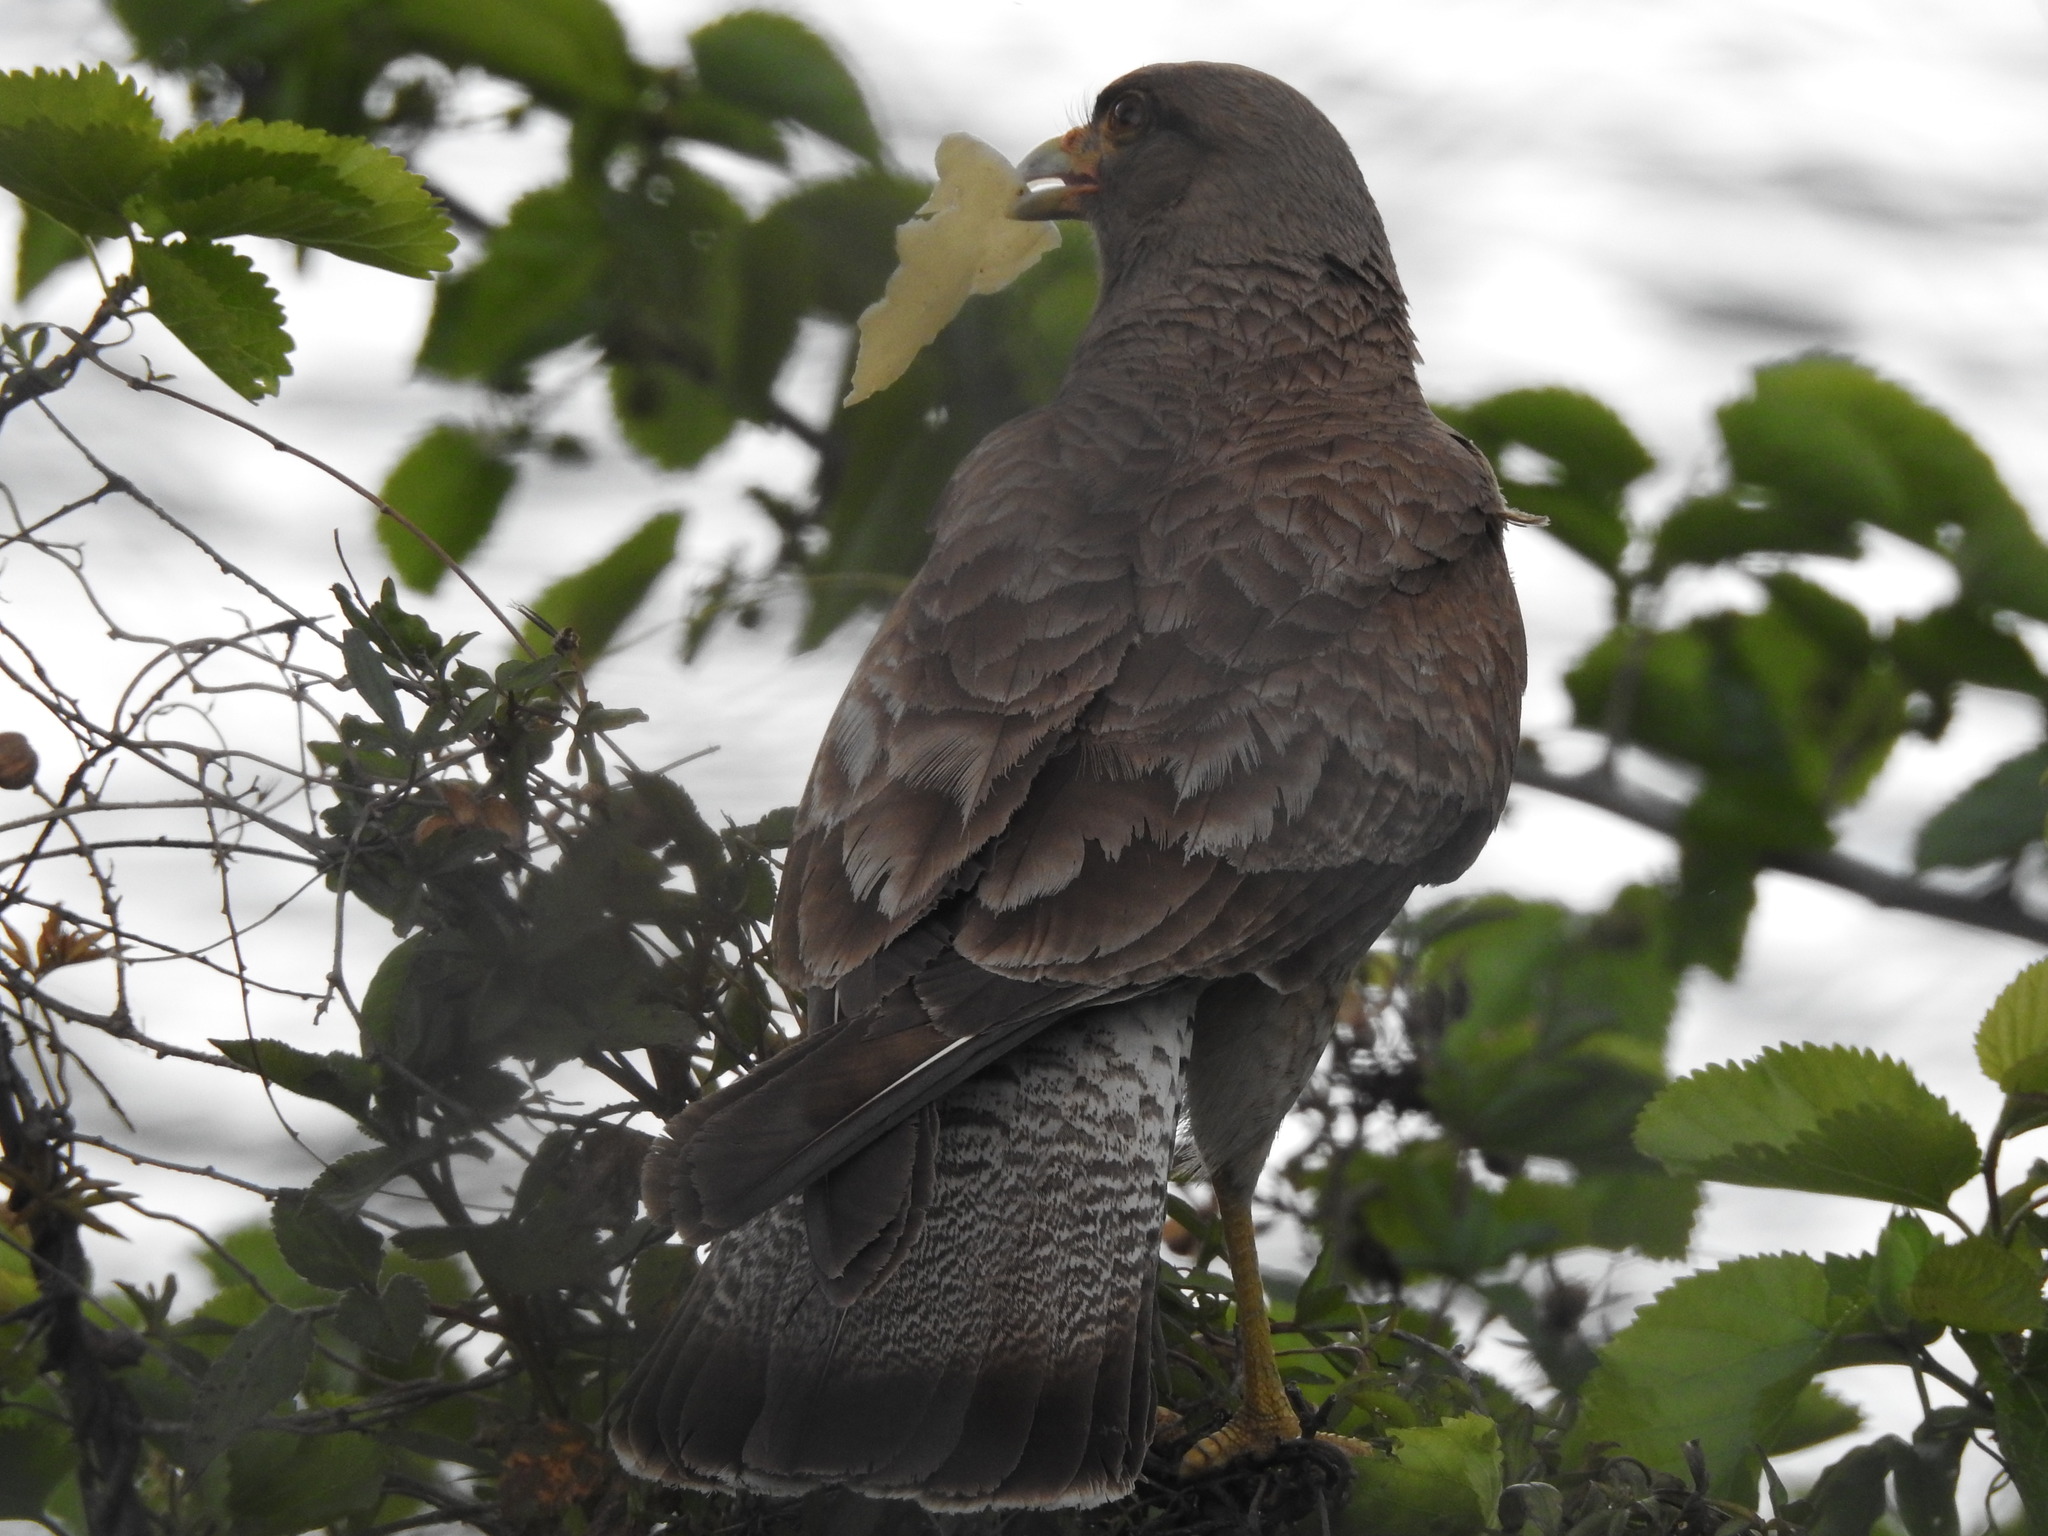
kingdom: Animalia
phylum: Chordata
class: Aves
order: Falconiformes
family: Falconidae
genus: Daptrius
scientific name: Daptrius
